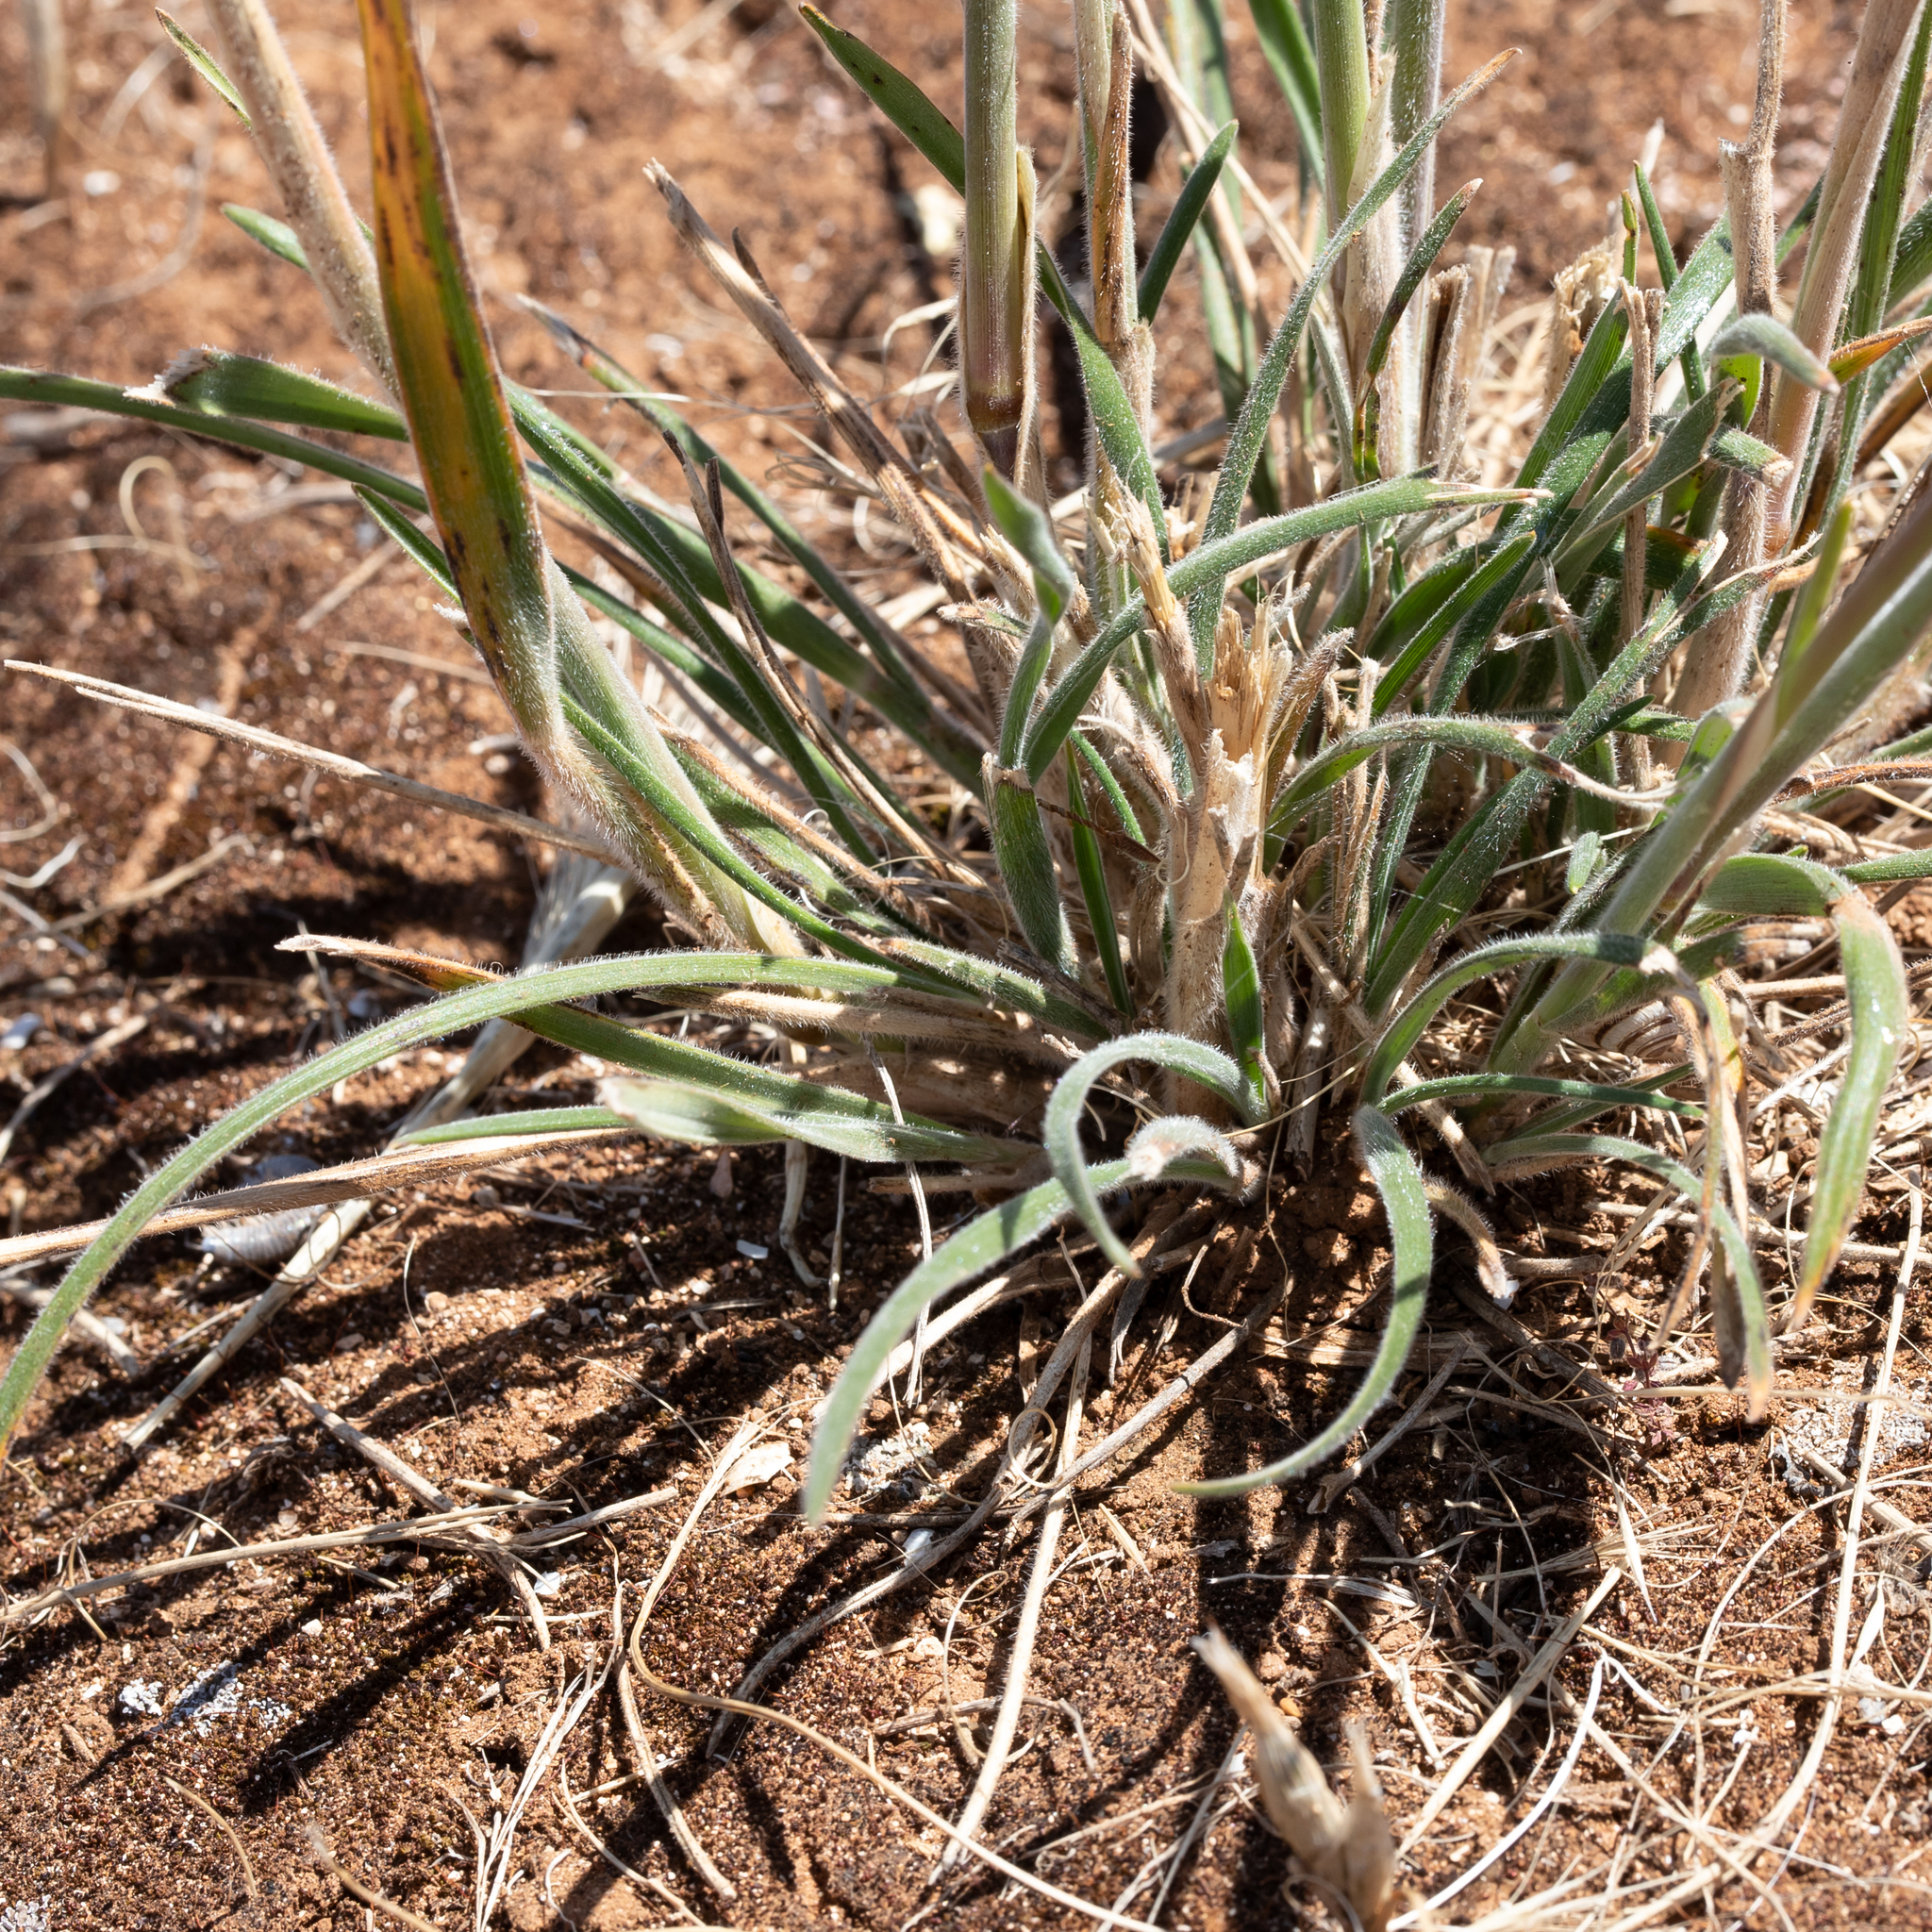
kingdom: Plantae
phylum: Tracheophyta
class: Liliopsida
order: Poales
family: Poaceae
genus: Austrostipa
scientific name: Austrostipa drummondii
